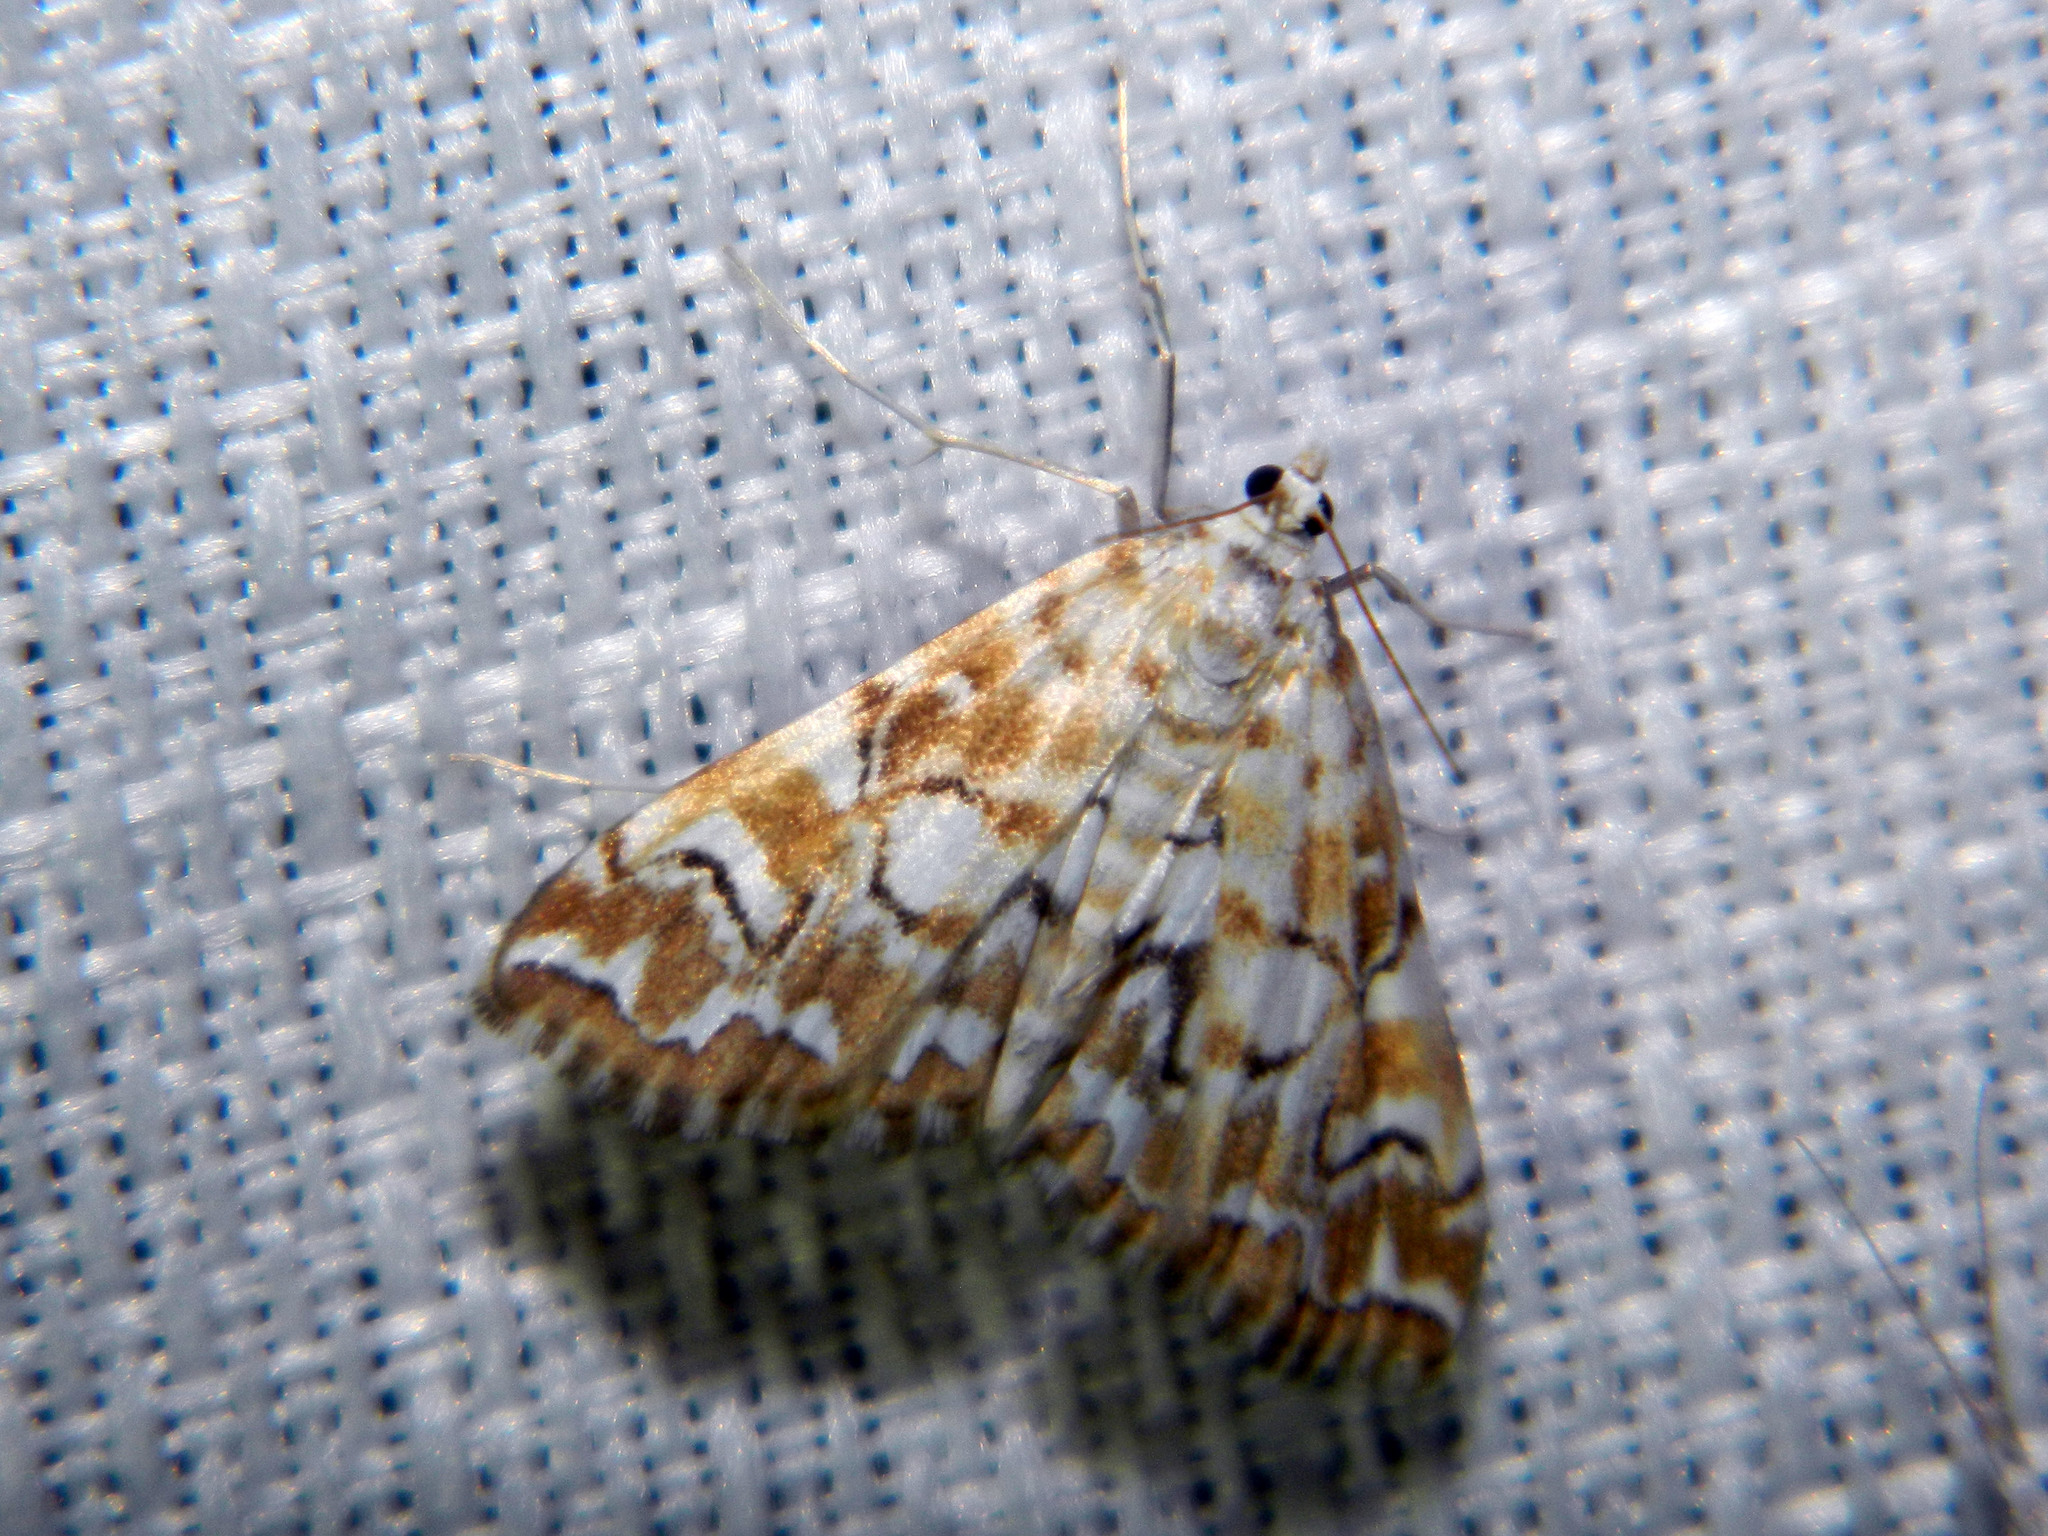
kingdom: Animalia
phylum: Arthropoda
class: Insecta
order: Lepidoptera
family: Crambidae
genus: Elophila
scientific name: Elophila icciusalis
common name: Pondside pyralid moth
